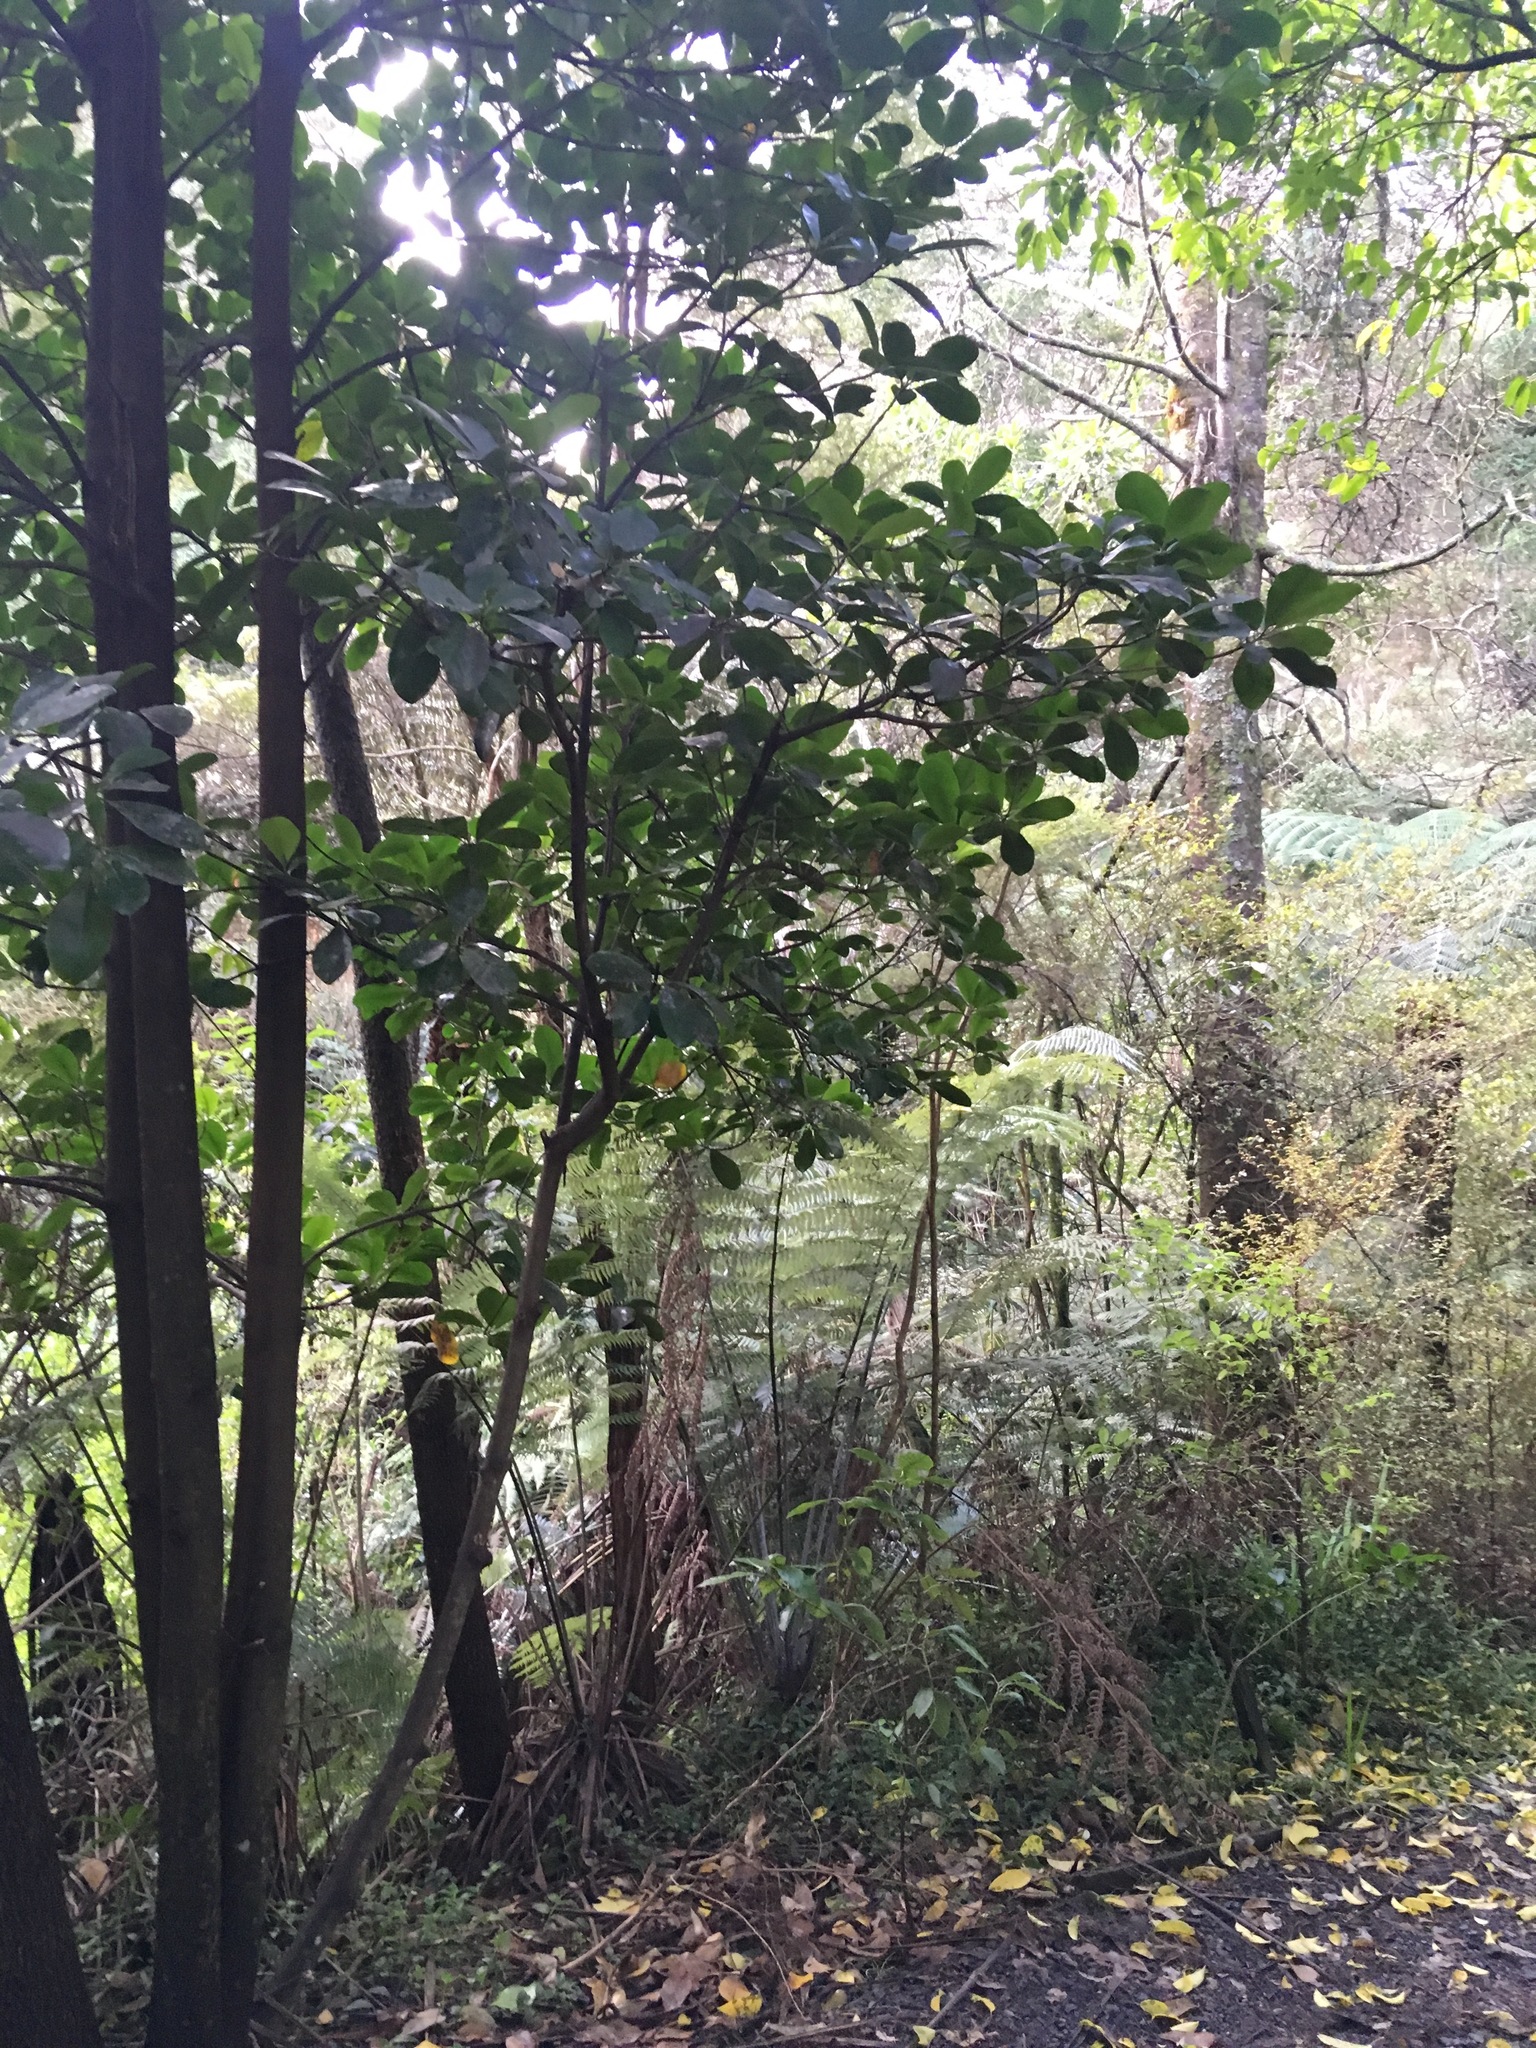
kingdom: Plantae
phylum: Tracheophyta
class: Magnoliopsida
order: Cucurbitales
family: Corynocarpaceae
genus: Corynocarpus
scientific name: Corynocarpus laevigatus
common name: New zealand laurel
